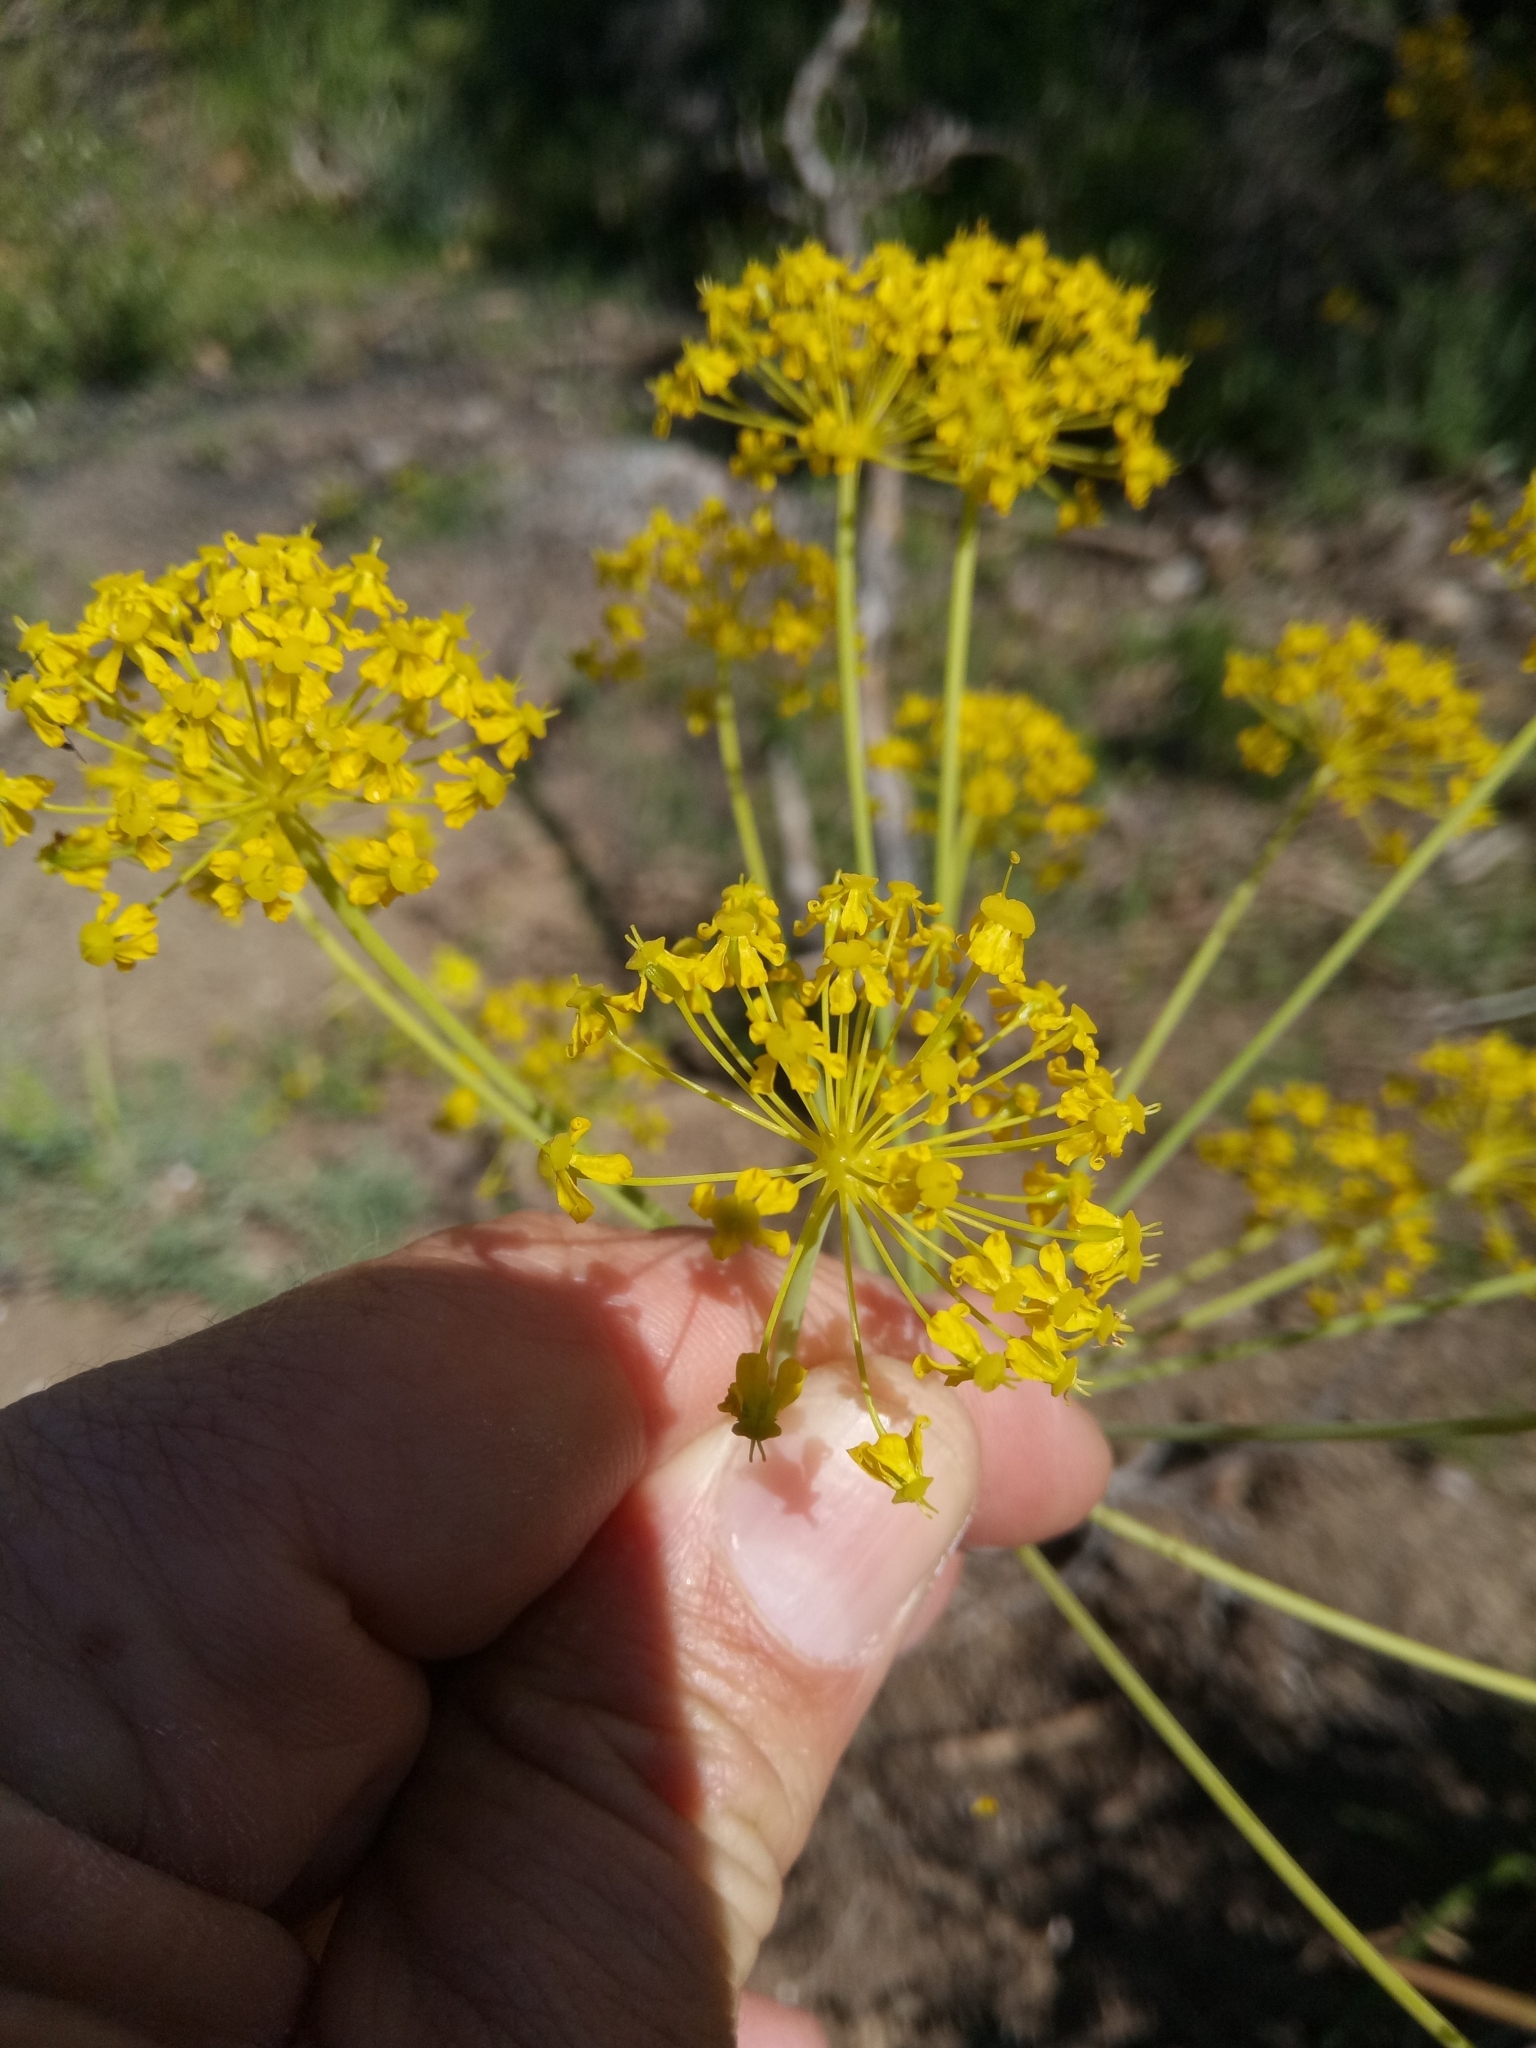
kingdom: Plantae
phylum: Tracheophyta
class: Magnoliopsida
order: Apiales
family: Apiaceae
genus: Thapsia
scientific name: Thapsia villosa
